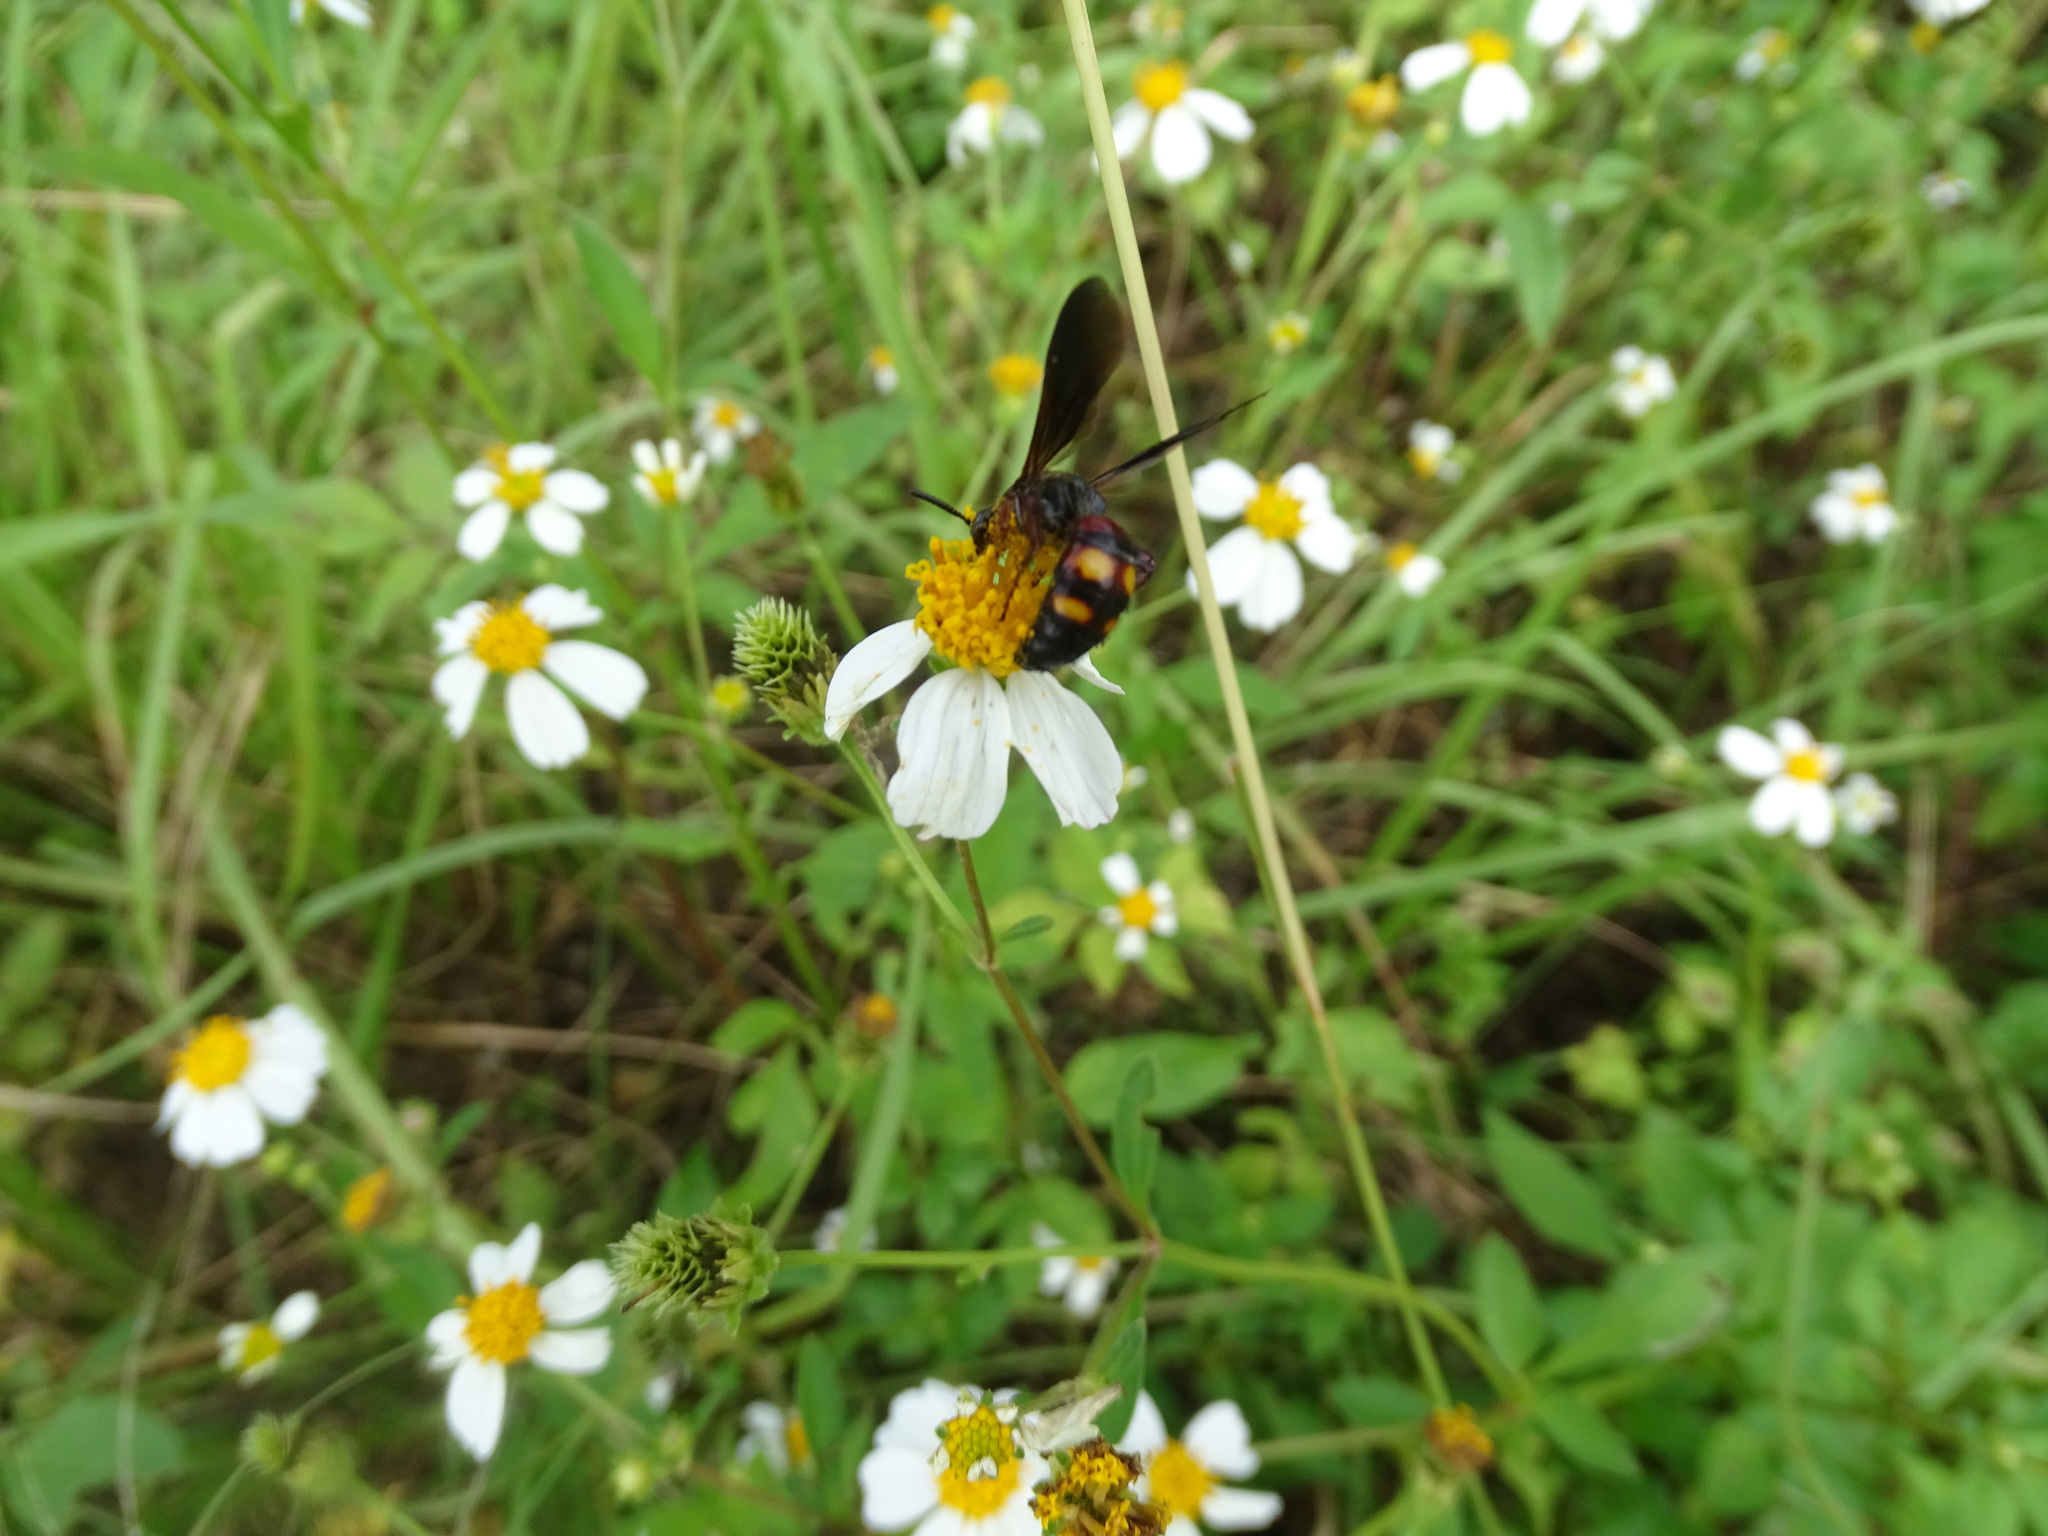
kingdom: Animalia
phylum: Arthropoda
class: Insecta
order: Hymenoptera
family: Scoliidae
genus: Scolia
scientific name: Scolia nobilitata
